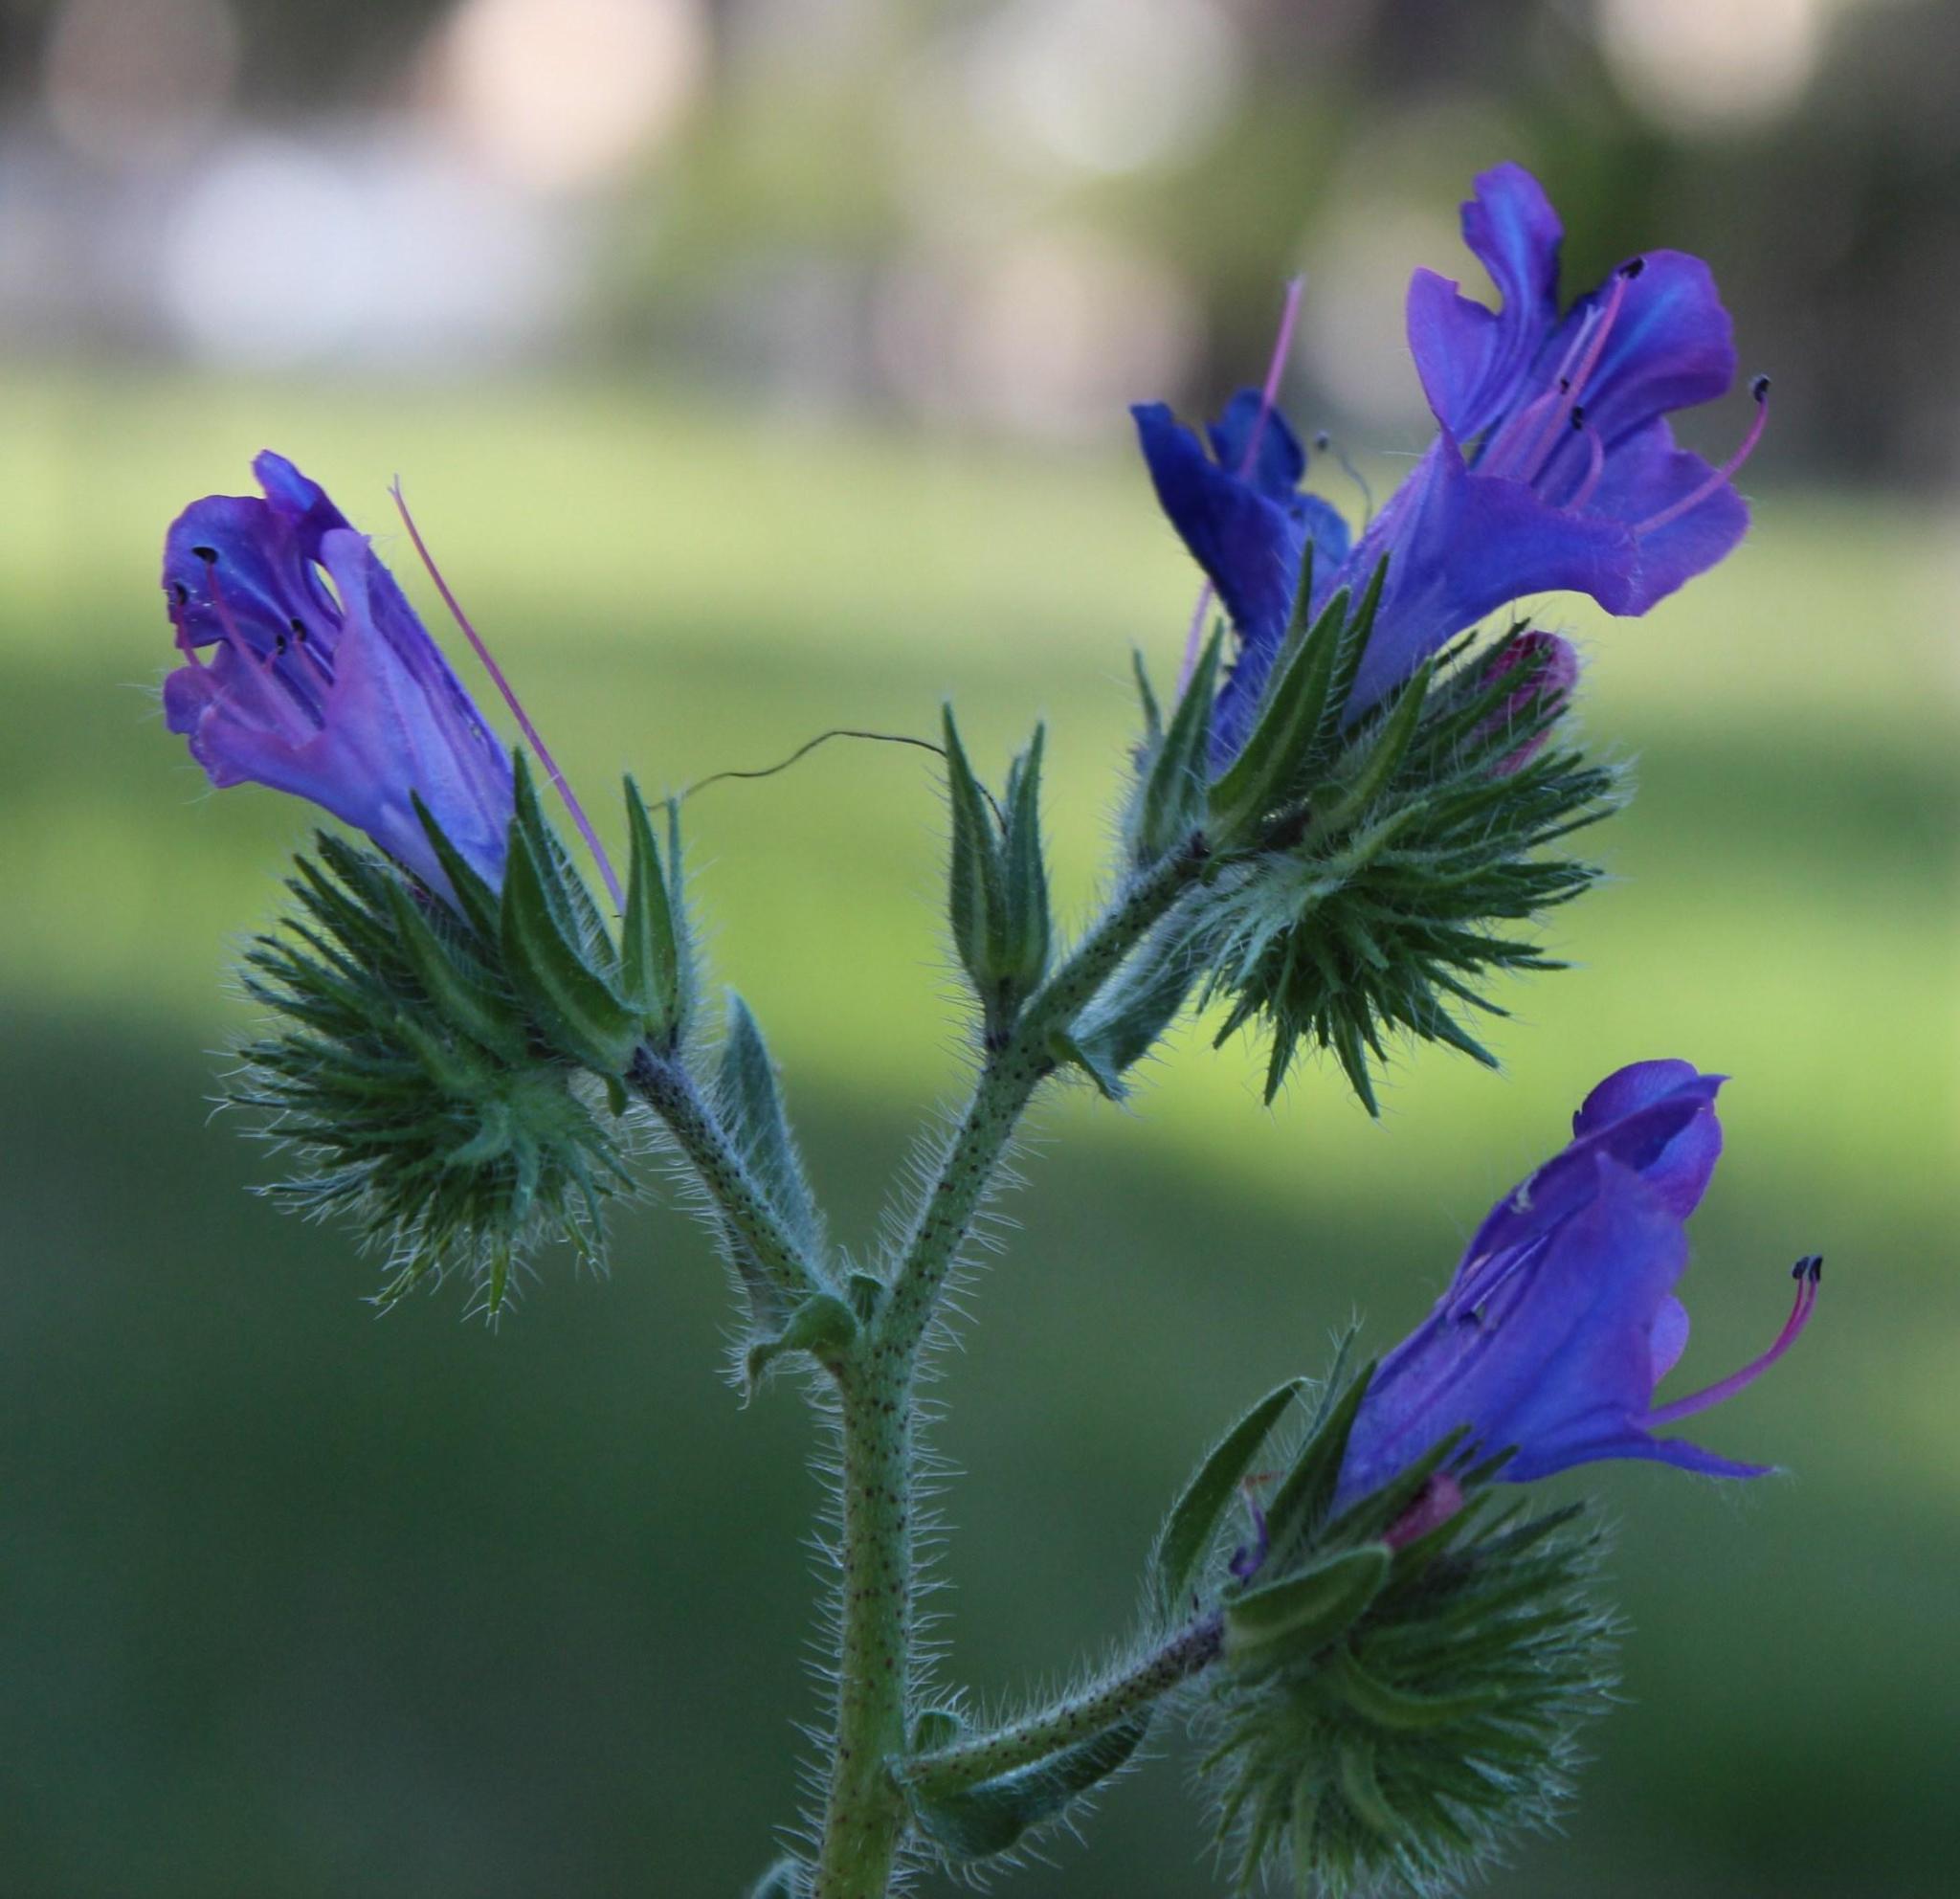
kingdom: Plantae
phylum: Tracheophyta
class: Magnoliopsida
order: Boraginales
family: Boraginaceae
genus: Echium
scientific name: Echium plantagineum
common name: Purple viper's-bugloss
